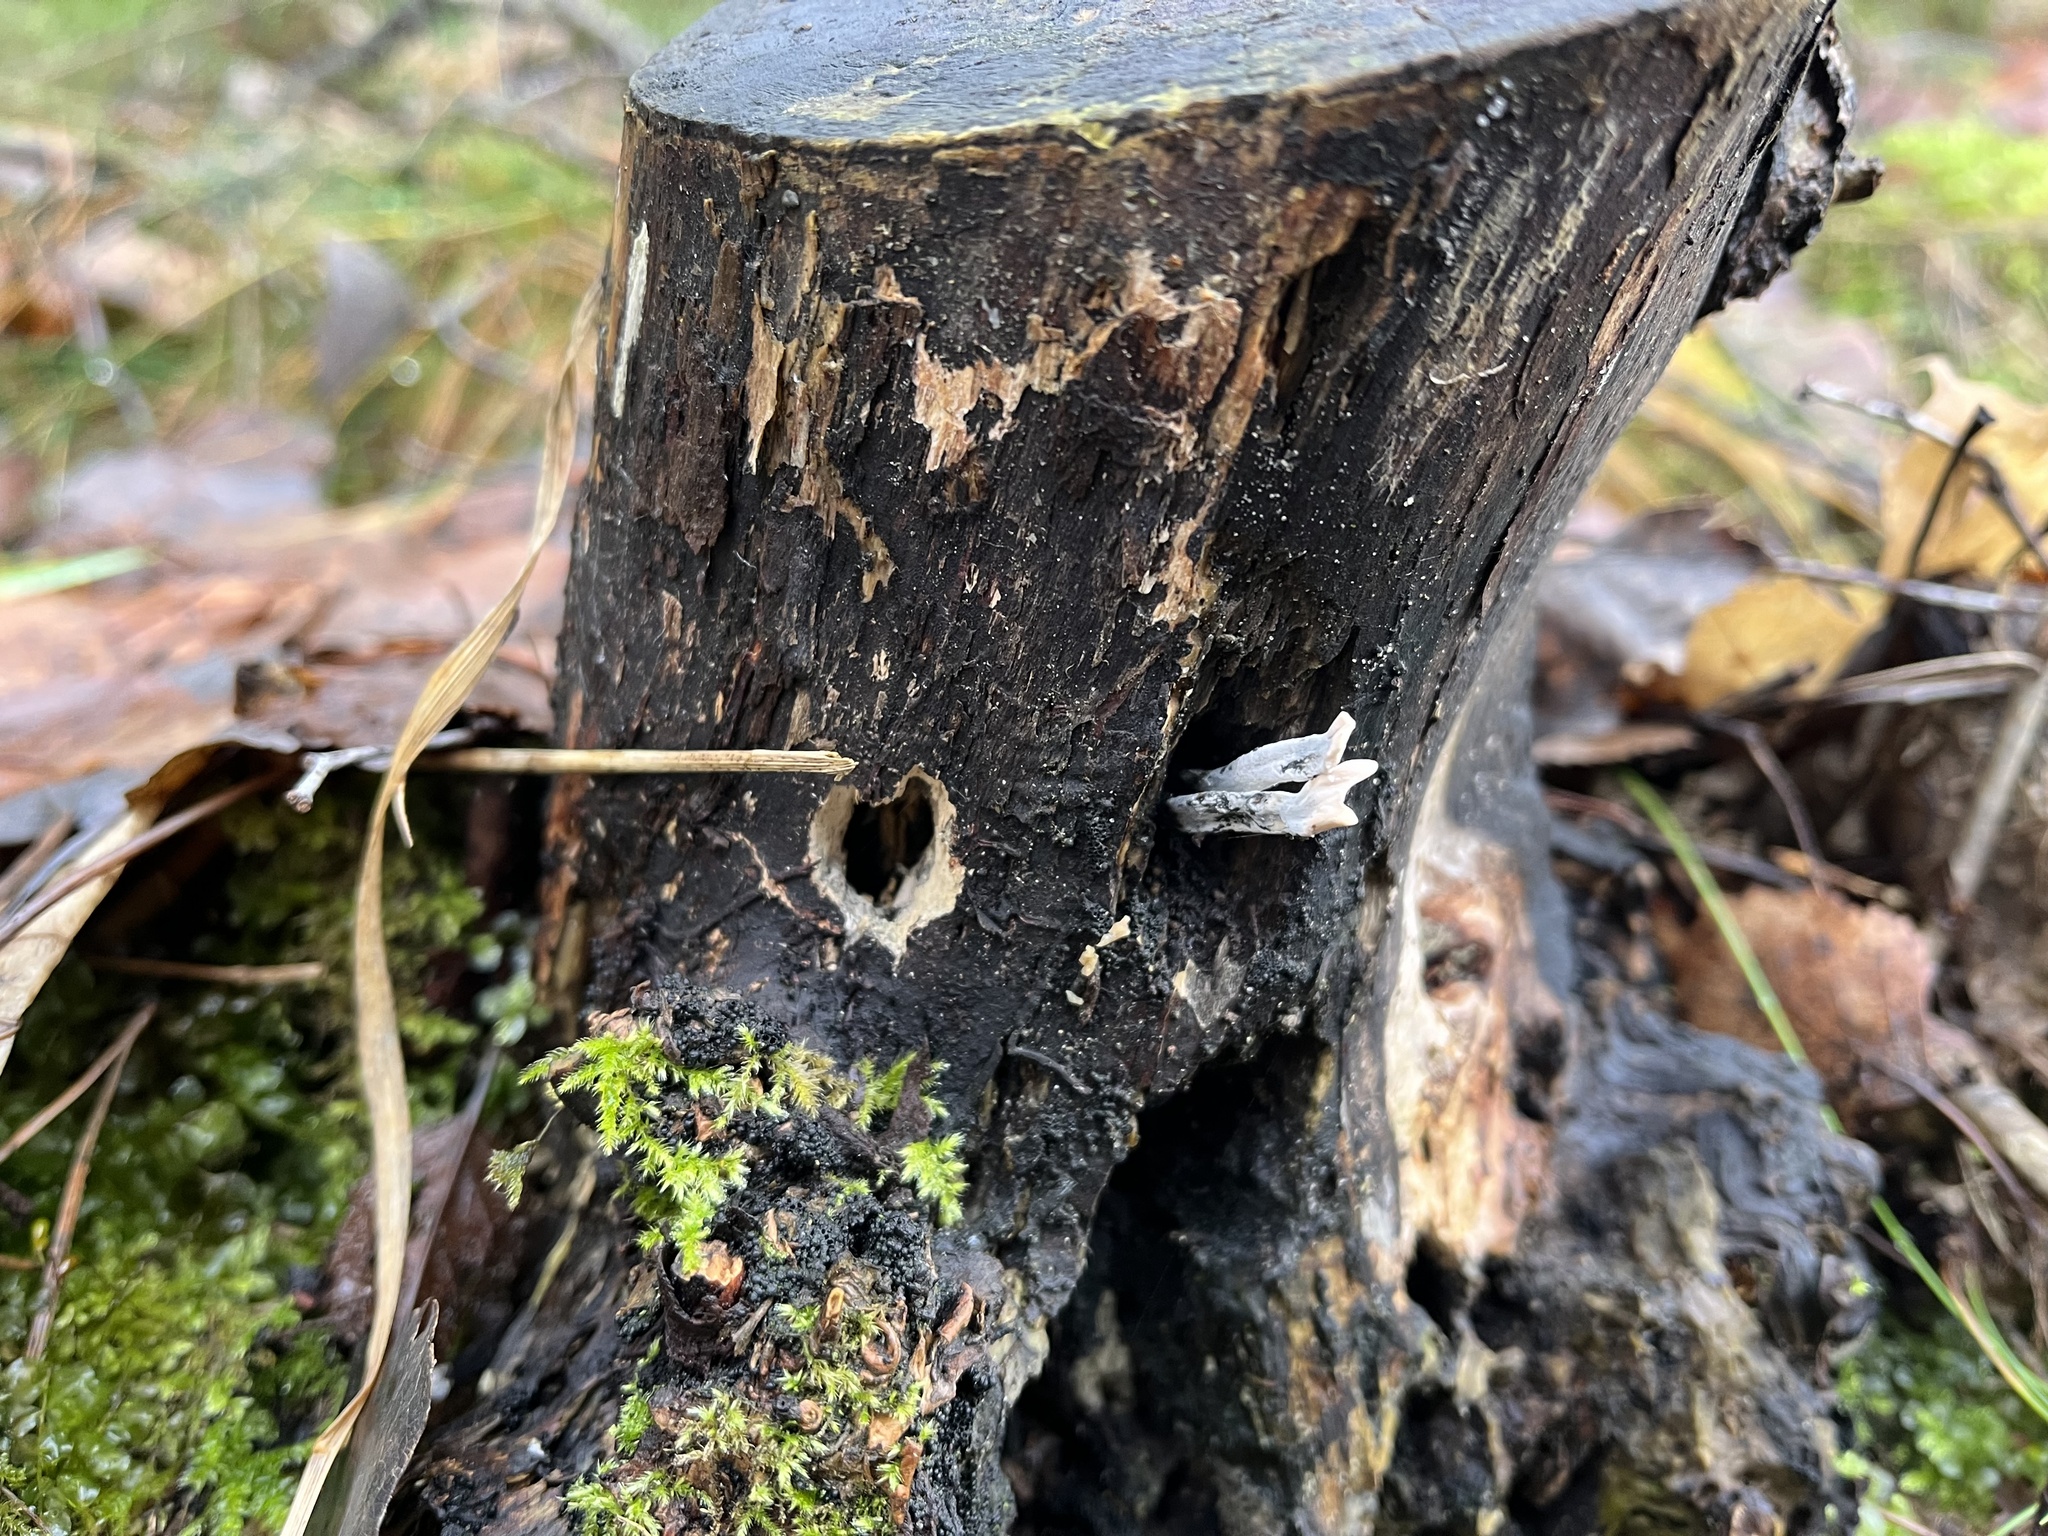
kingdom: Fungi
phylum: Ascomycota
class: Sordariomycetes
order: Xylariales
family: Xylariaceae
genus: Xylaria
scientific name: Xylaria hypoxylon
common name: Candle-snuff fungus
